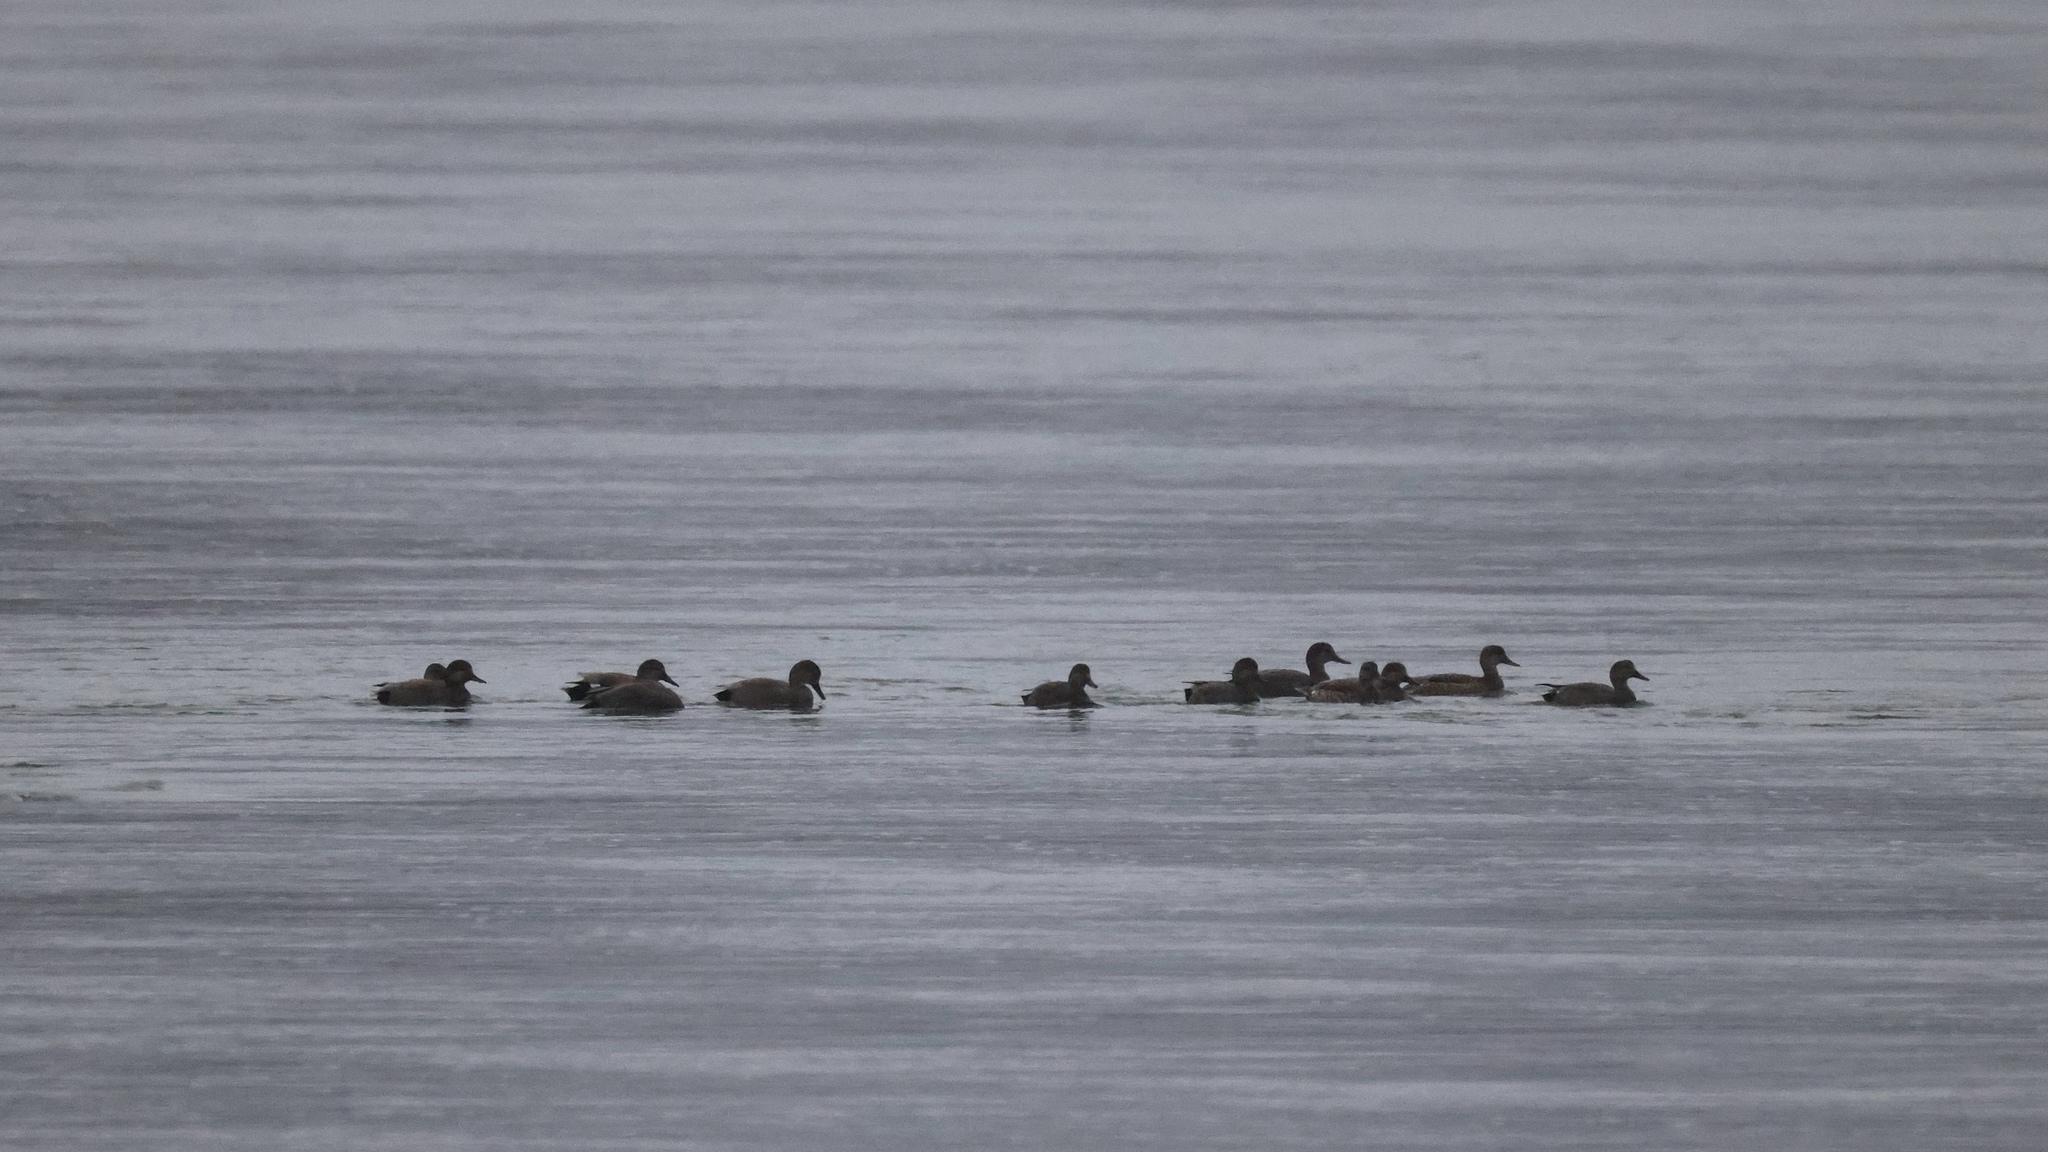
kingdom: Animalia
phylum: Chordata
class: Aves
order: Anseriformes
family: Anatidae
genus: Mareca
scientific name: Mareca strepera
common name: Gadwall
